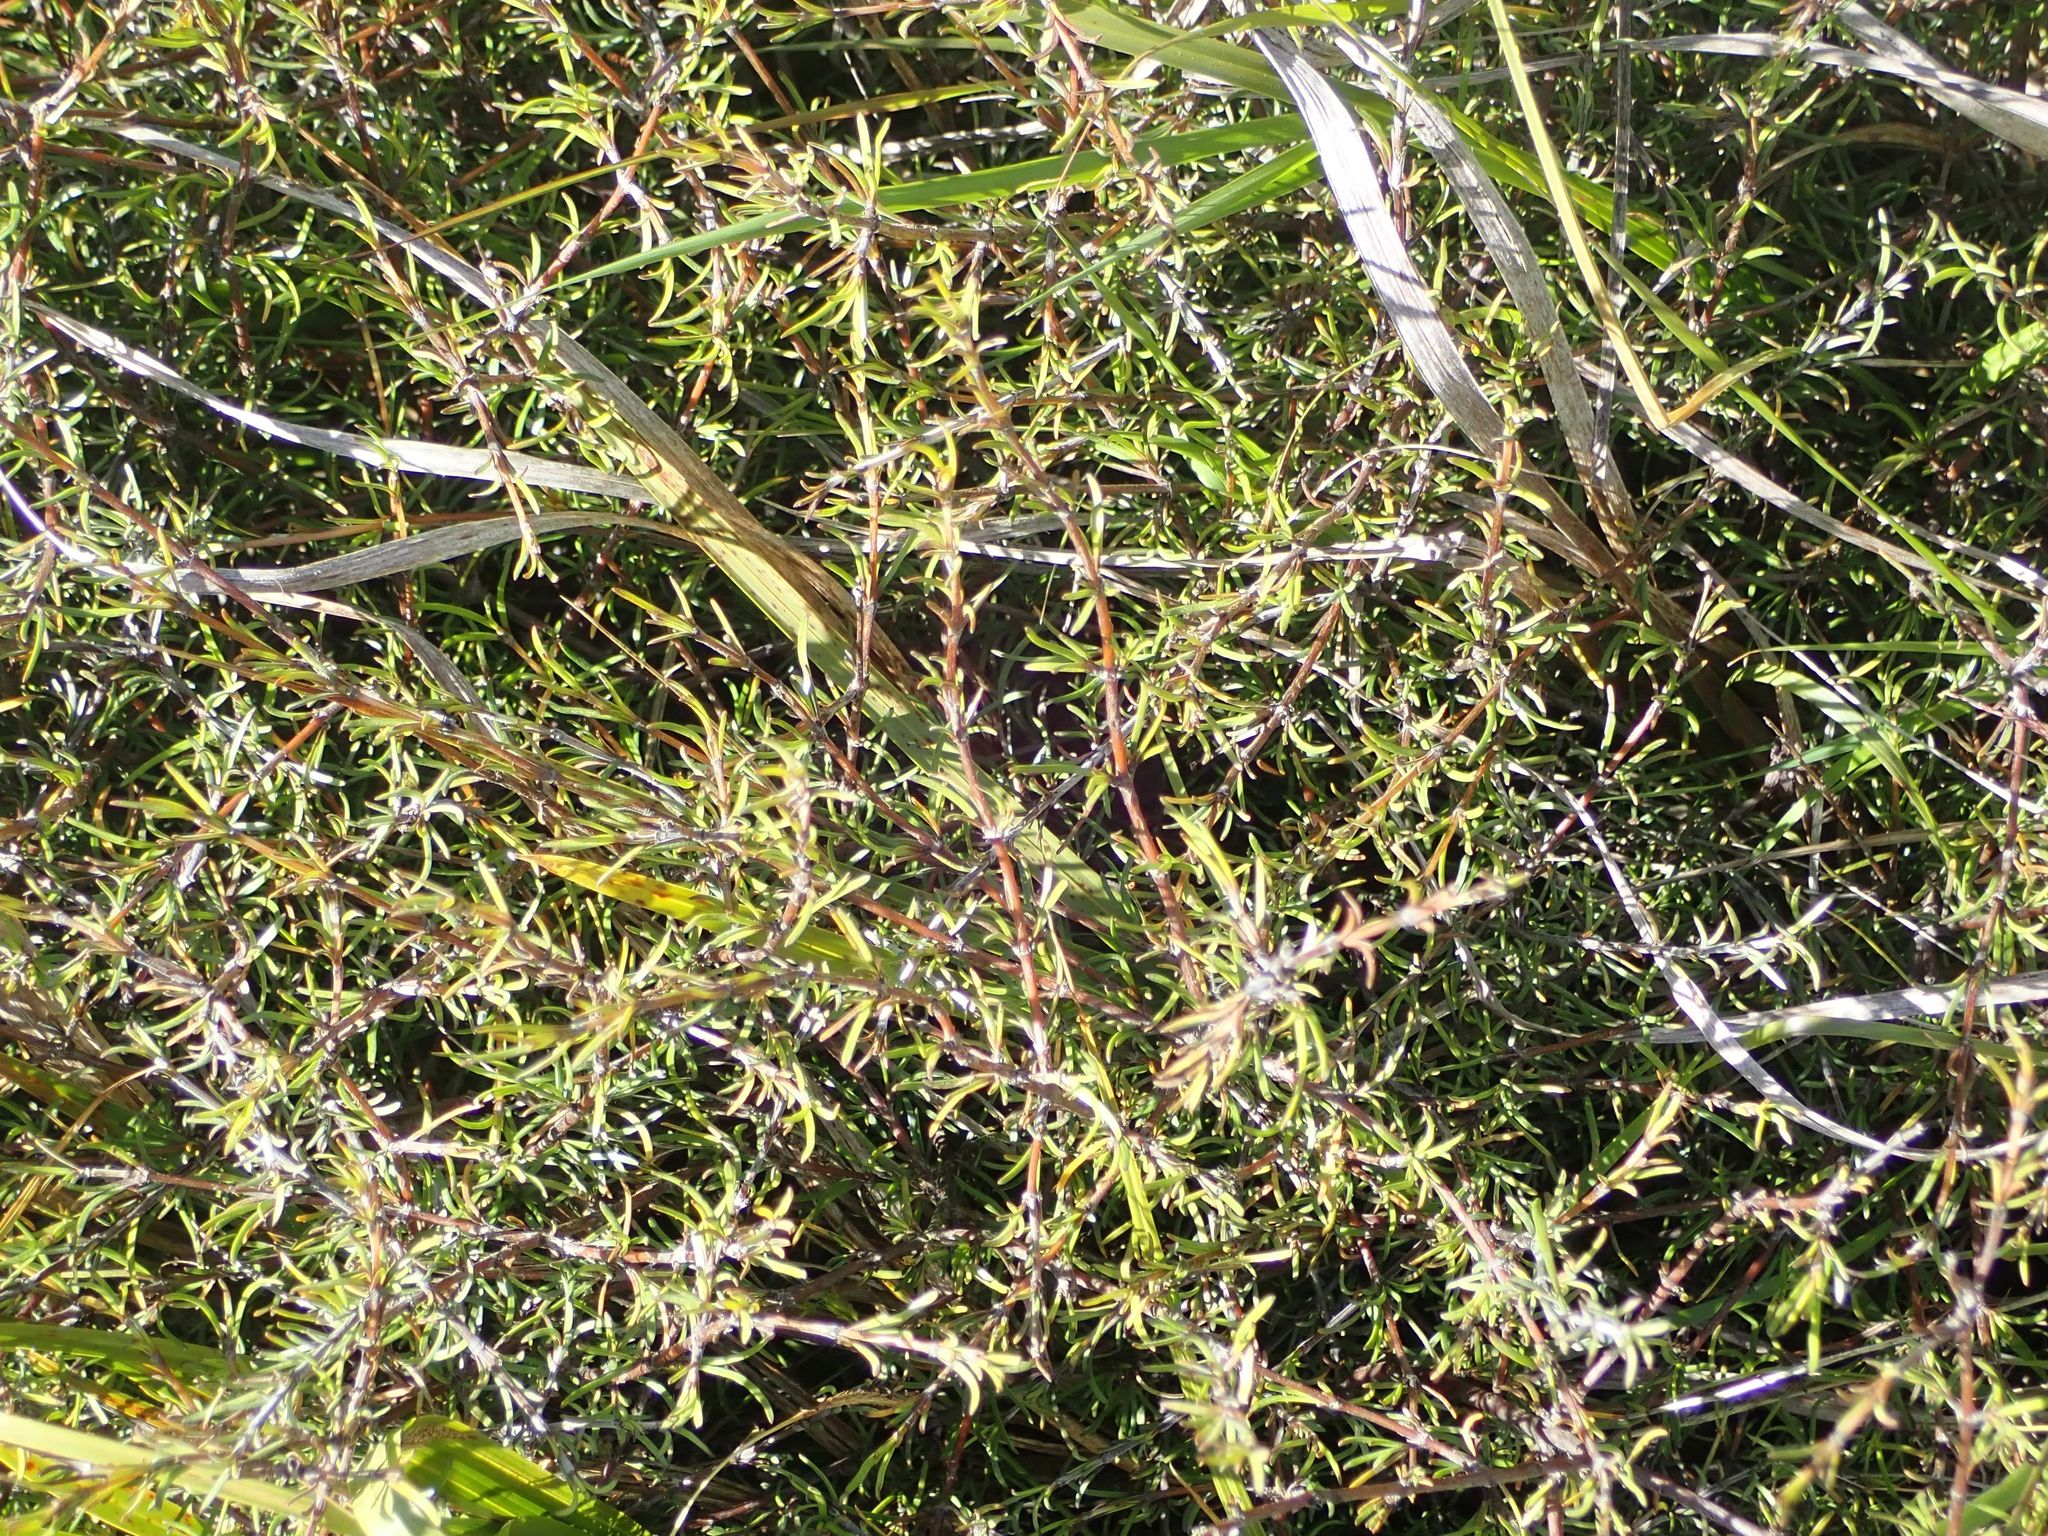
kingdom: Plantae
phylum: Tracheophyta
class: Magnoliopsida
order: Gentianales
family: Rubiaceae
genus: Coprosma
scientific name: Coprosma elatirioides
